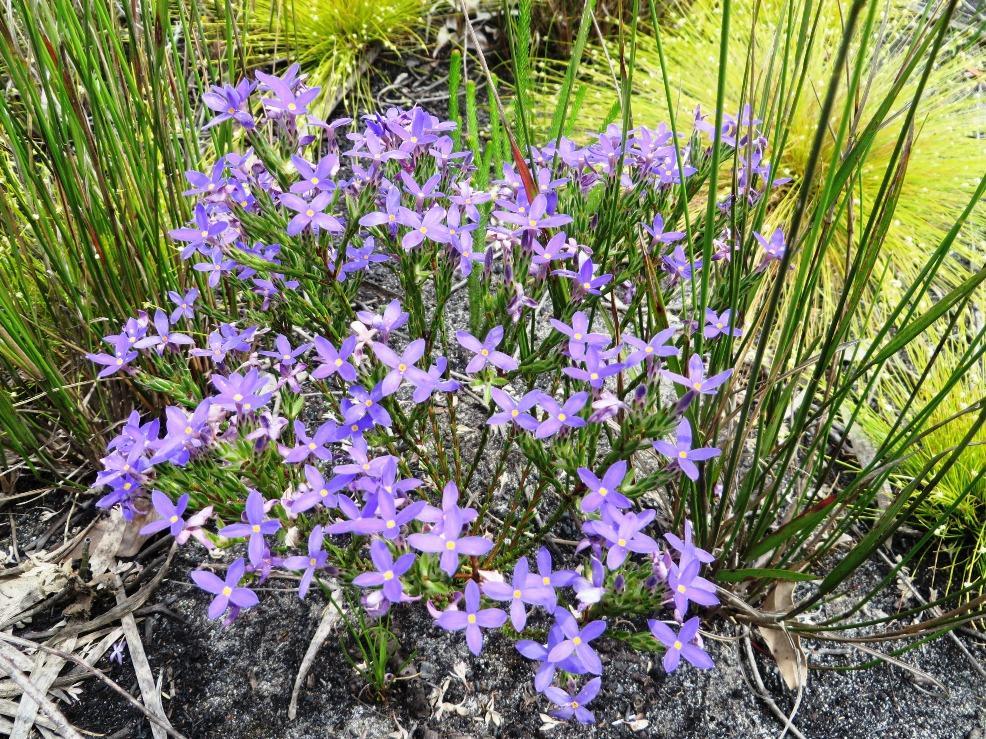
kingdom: Plantae
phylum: Tracheophyta
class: Magnoliopsida
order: Malvales
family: Thymelaeaceae
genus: Gnidia
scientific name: Gnidia penicillata
